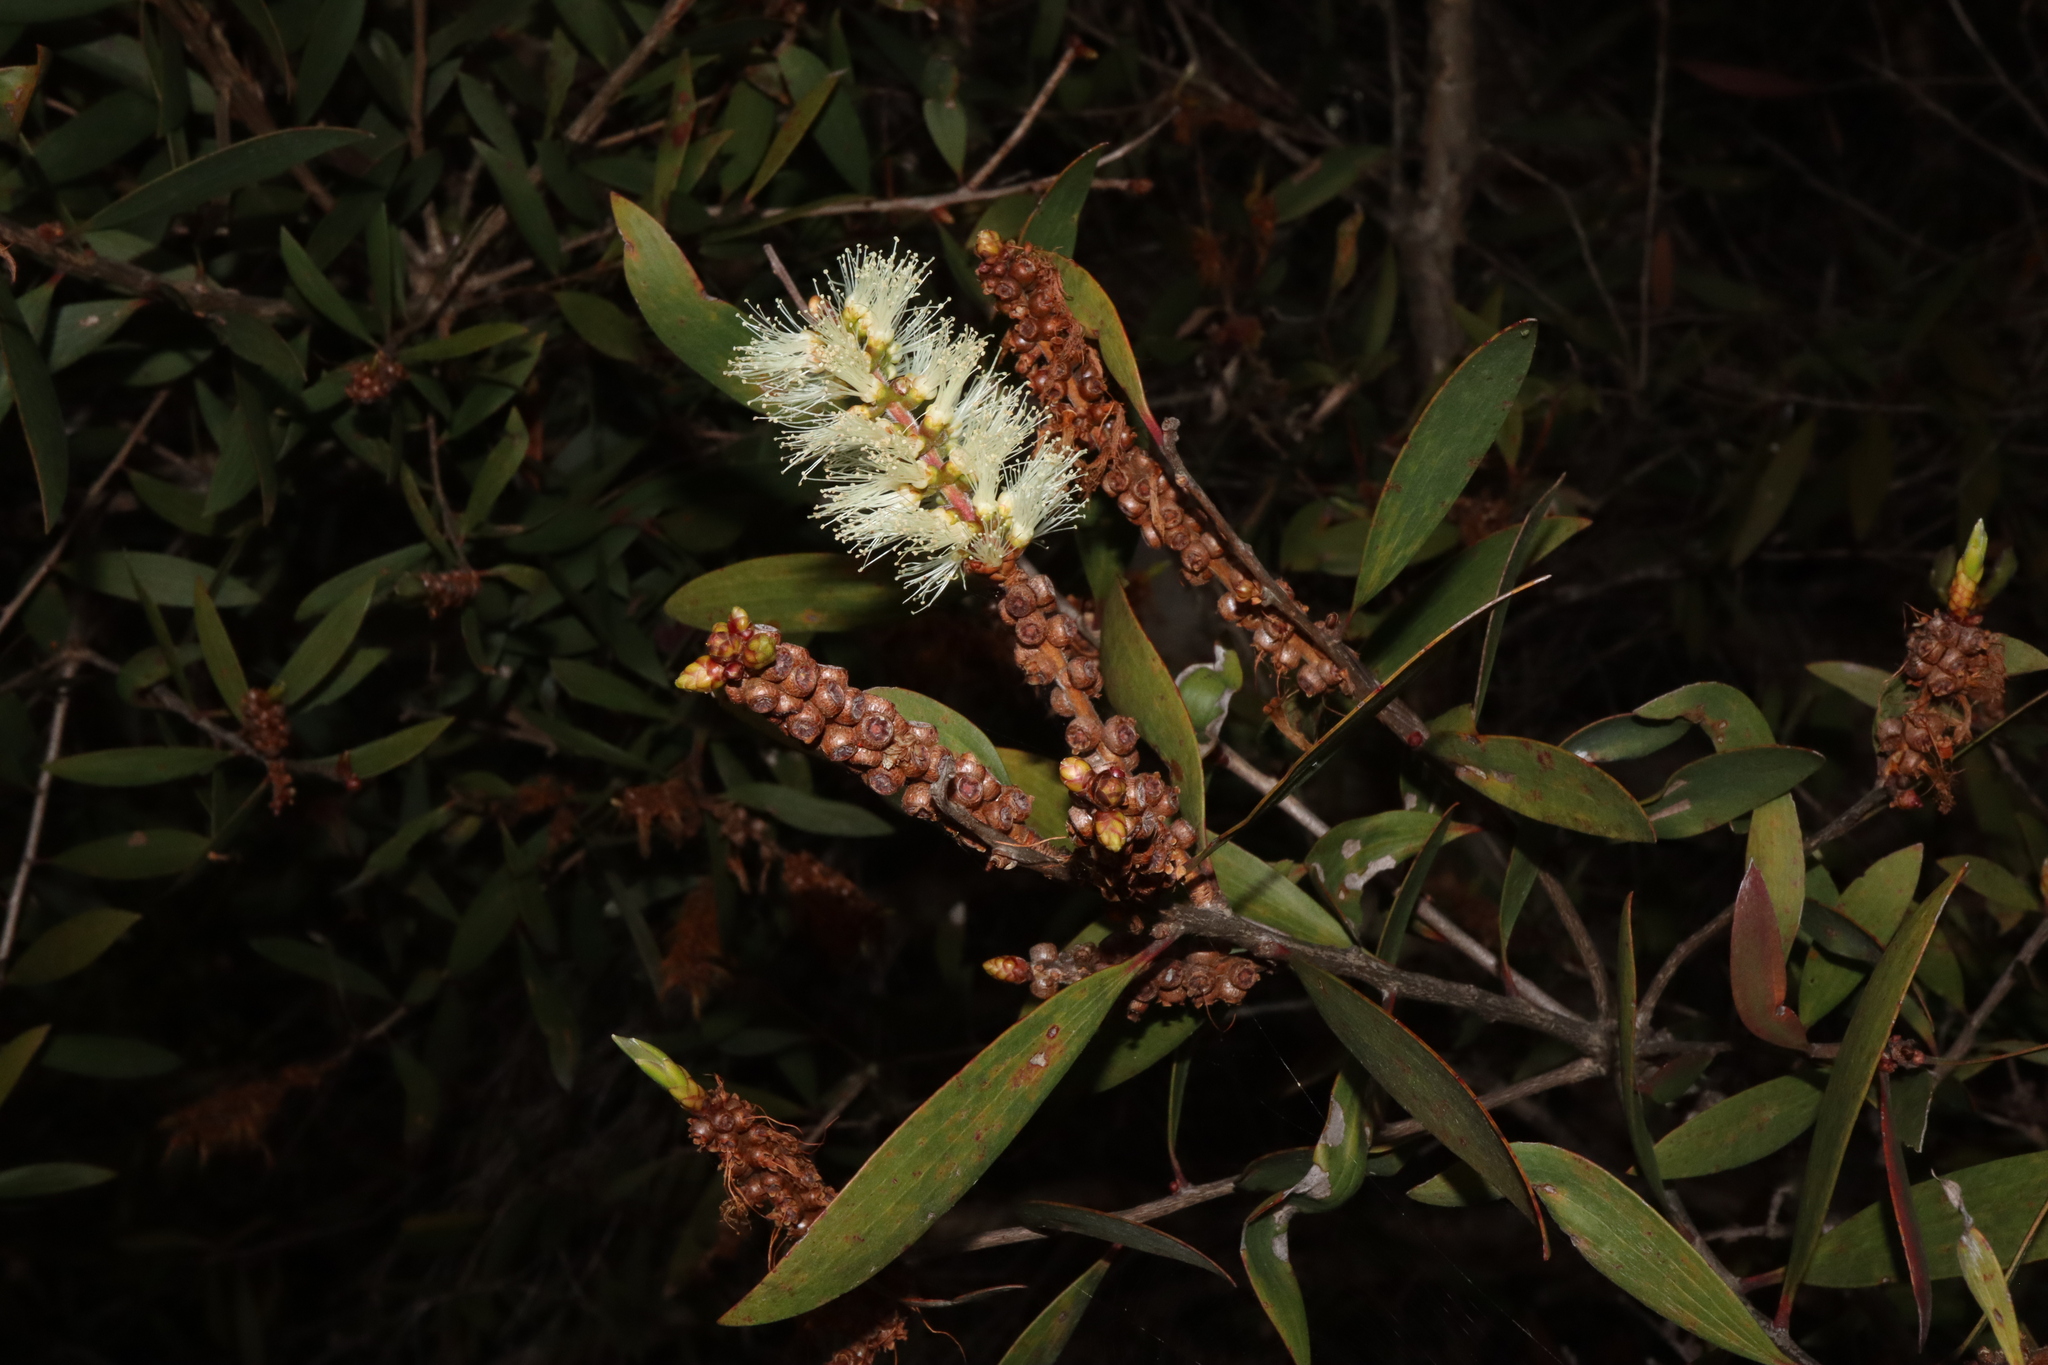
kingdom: Plantae
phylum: Tracheophyta
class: Magnoliopsida
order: Myrtales
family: Myrtaceae
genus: Melaleuca
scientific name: Melaleuca quinquenervia
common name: Punktree
